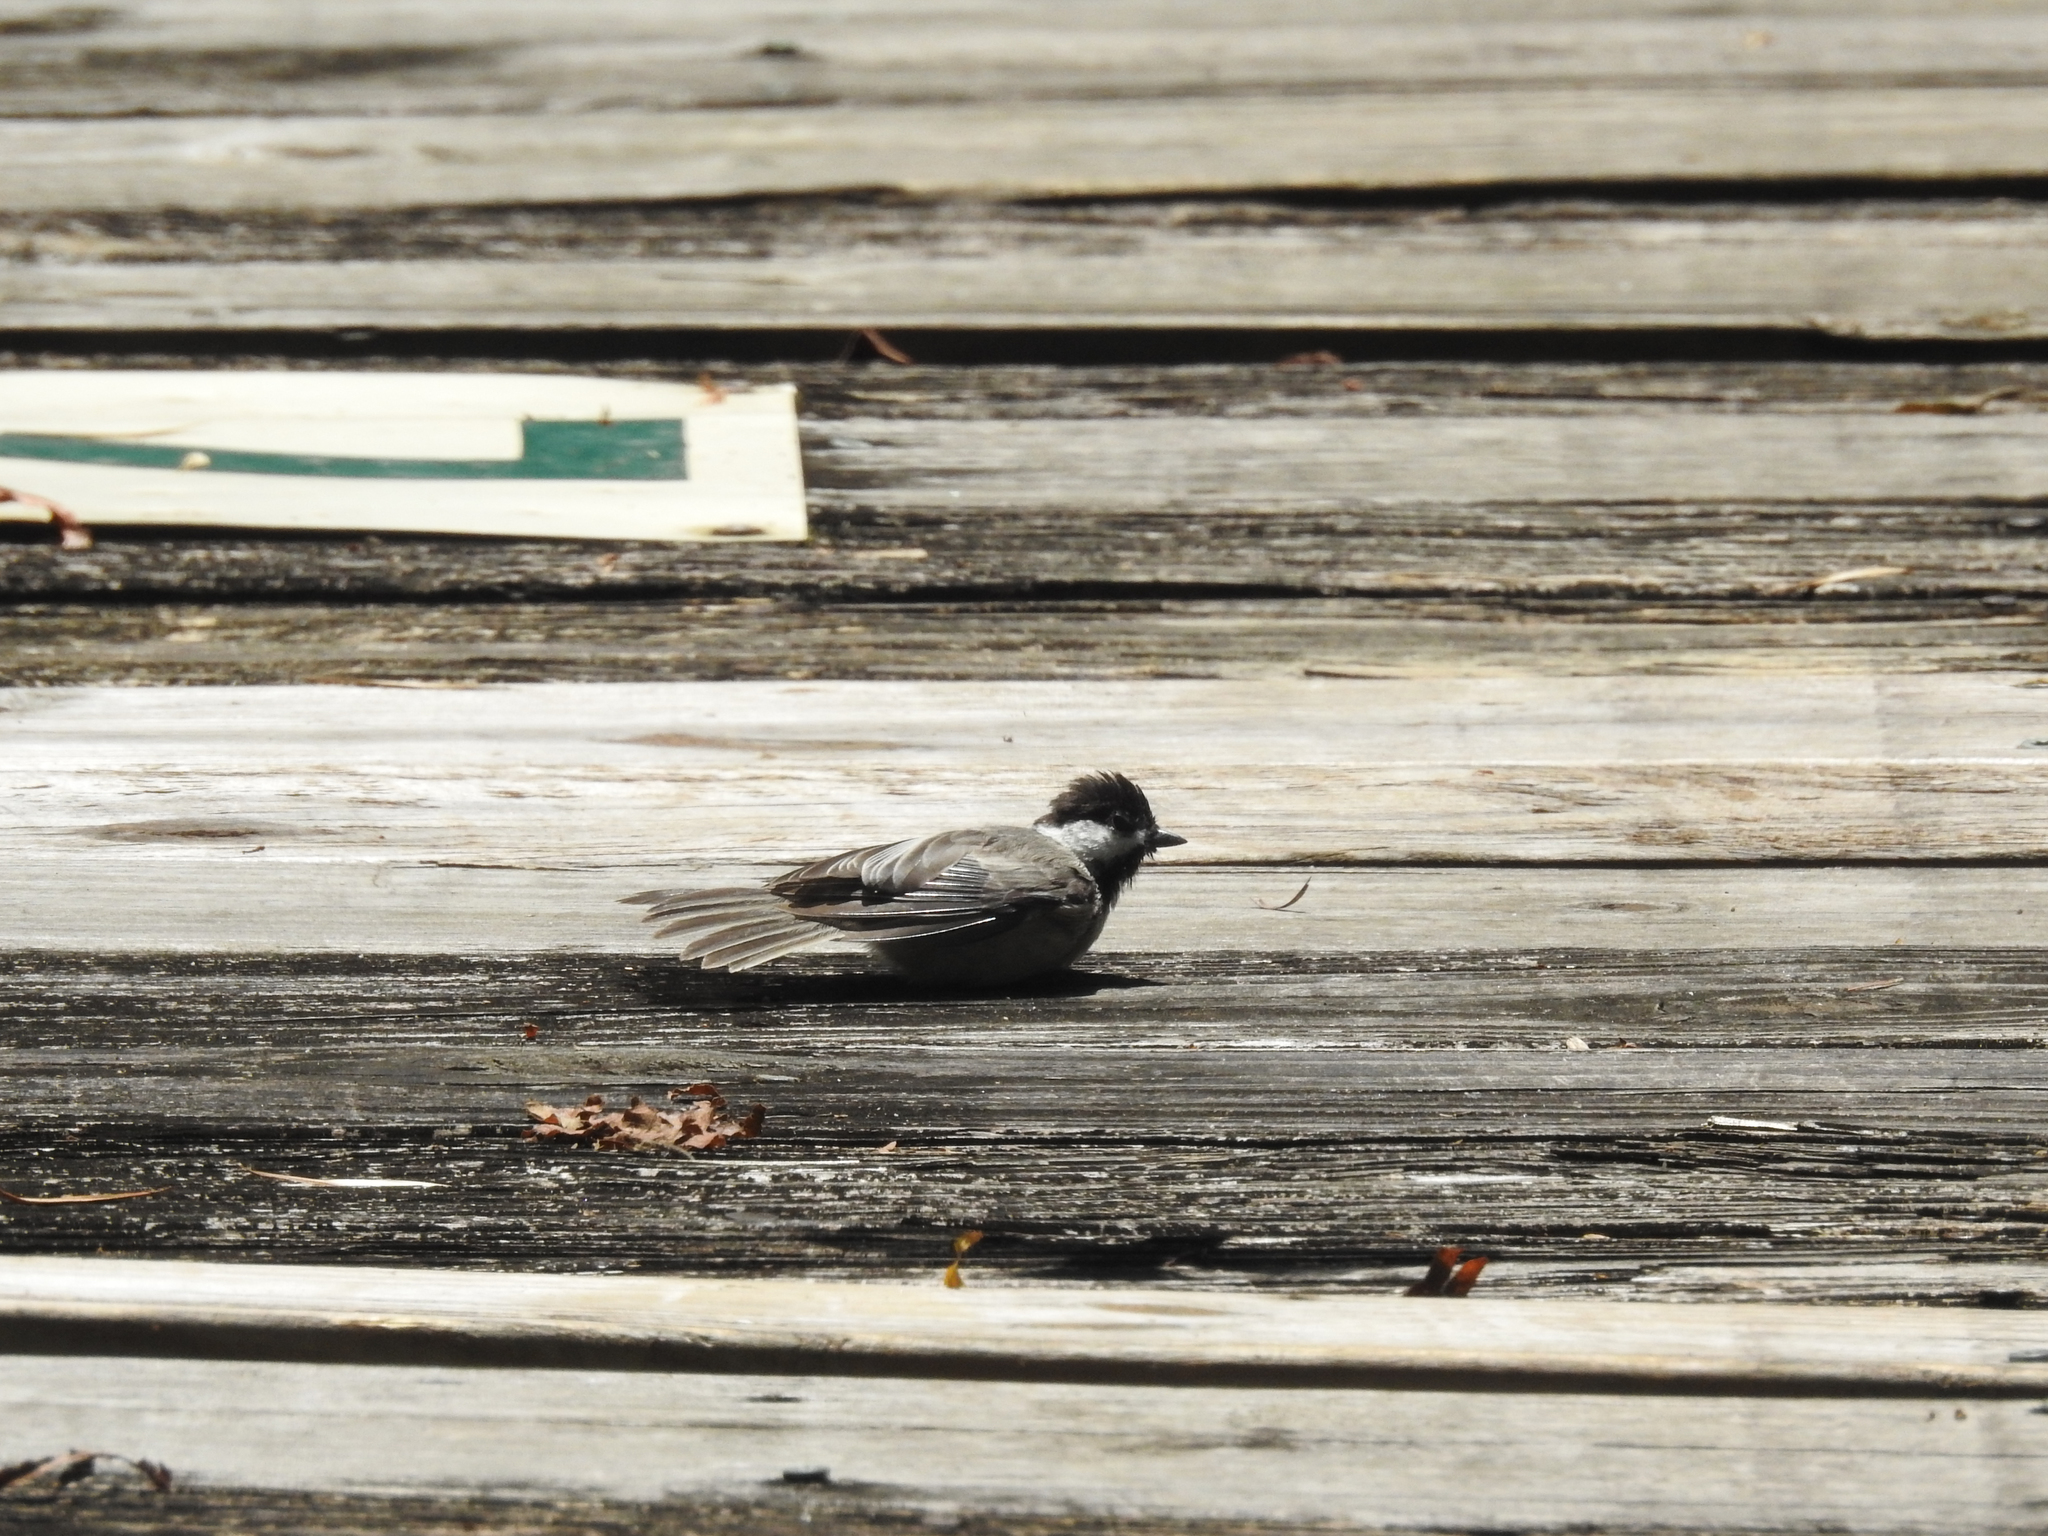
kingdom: Animalia
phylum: Chordata
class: Aves
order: Passeriformes
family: Paridae
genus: Poecile
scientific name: Poecile carolinensis
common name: Carolina chickadee
